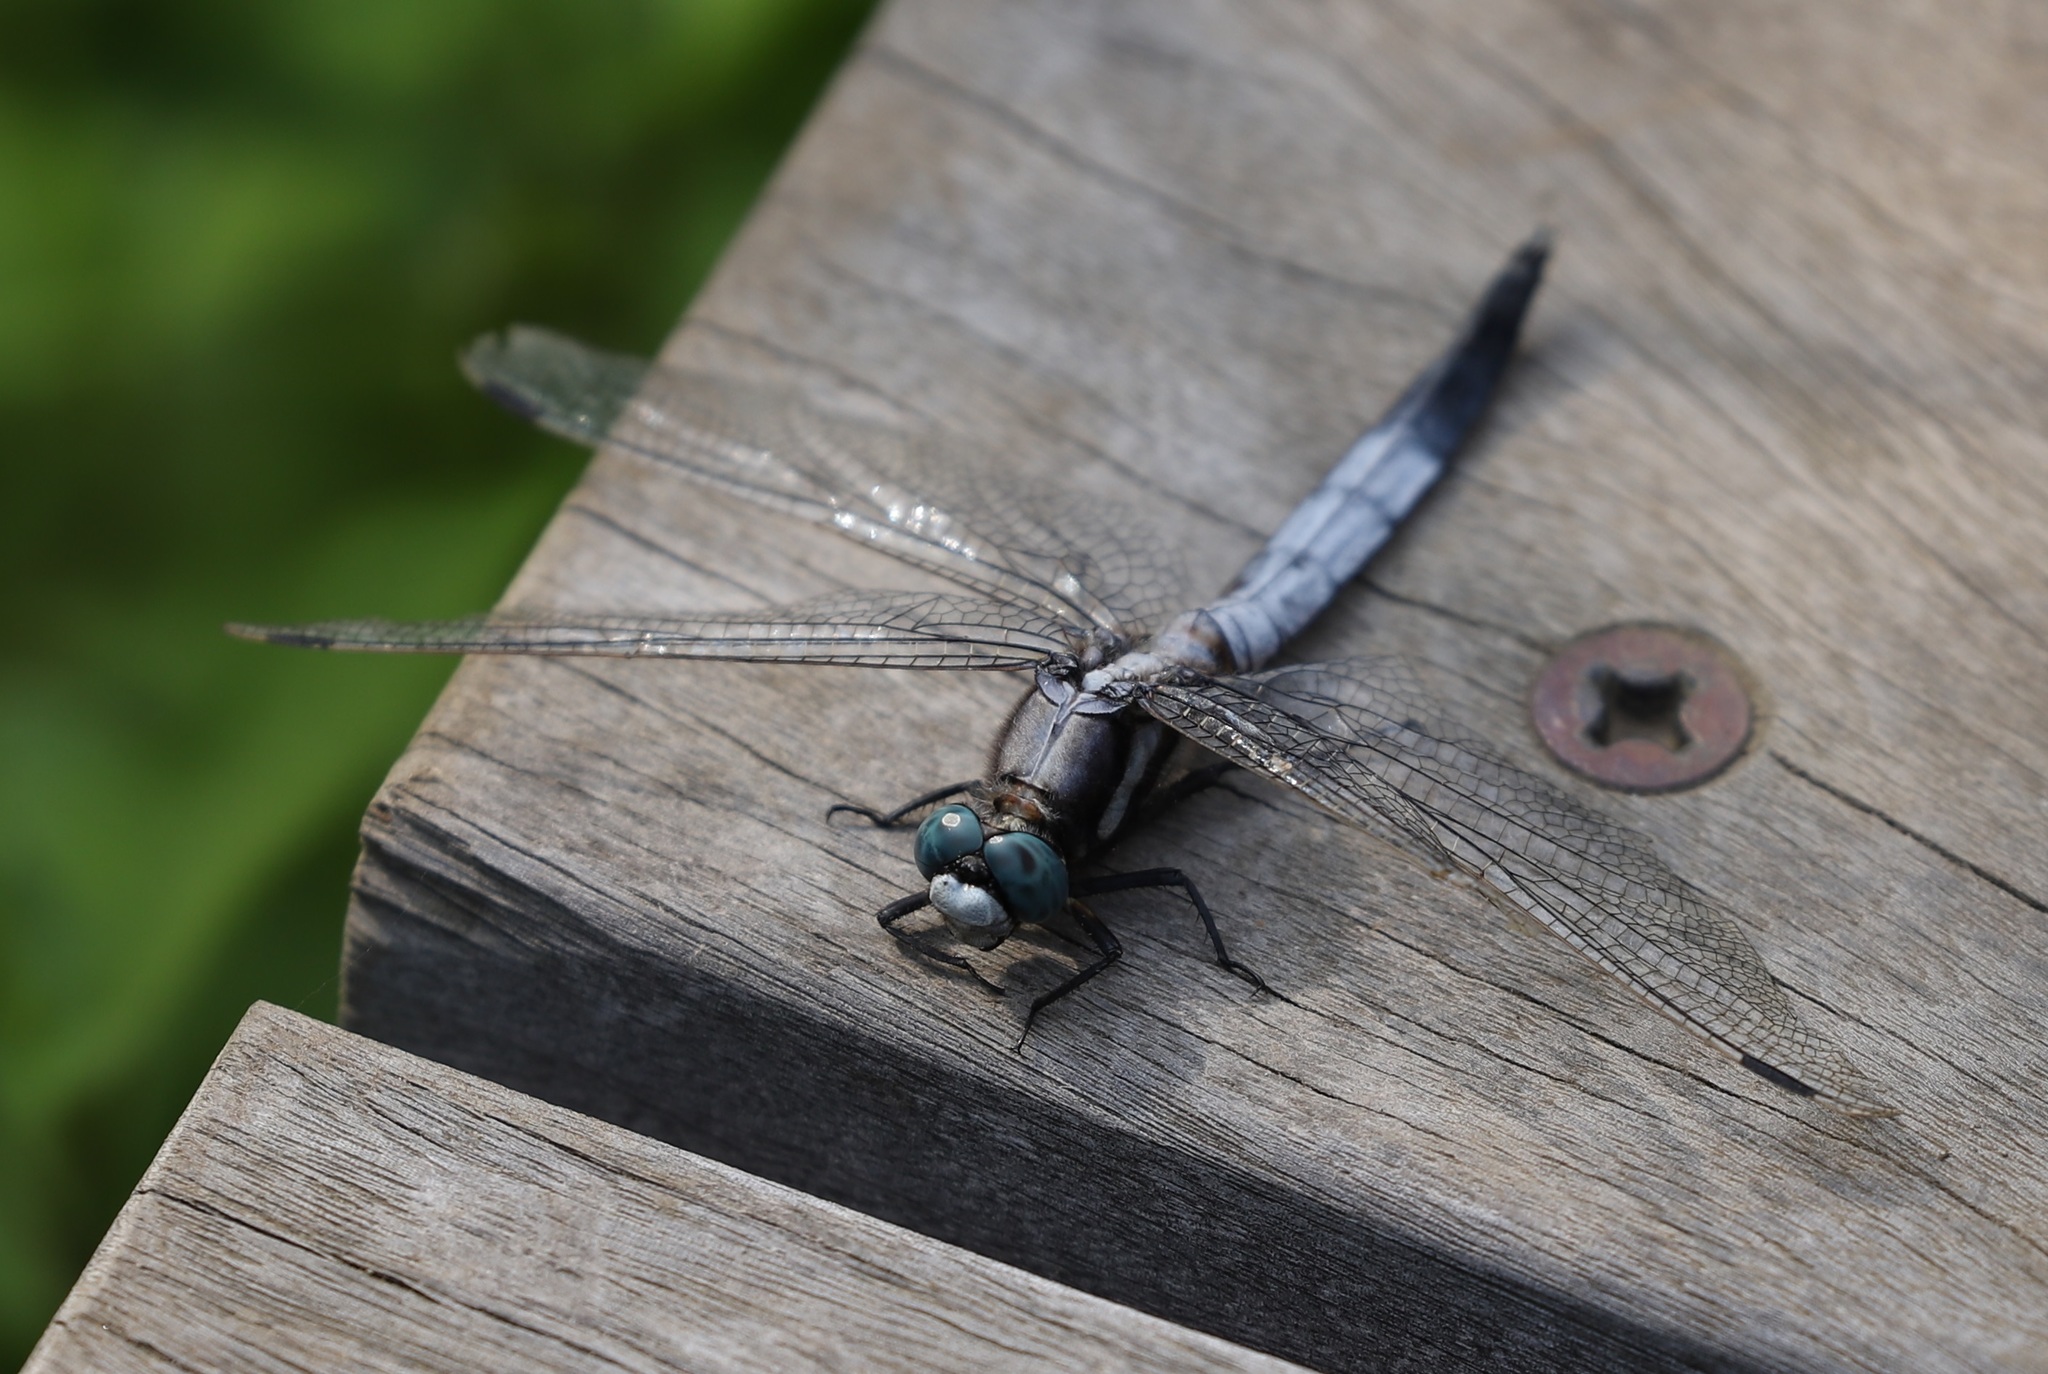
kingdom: Animalia
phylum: Arthropoda
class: Insecta
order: Odonata
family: Libellulidae
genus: Orthetrum
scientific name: Orthetrum albistylum
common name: White-tailed skimmer
